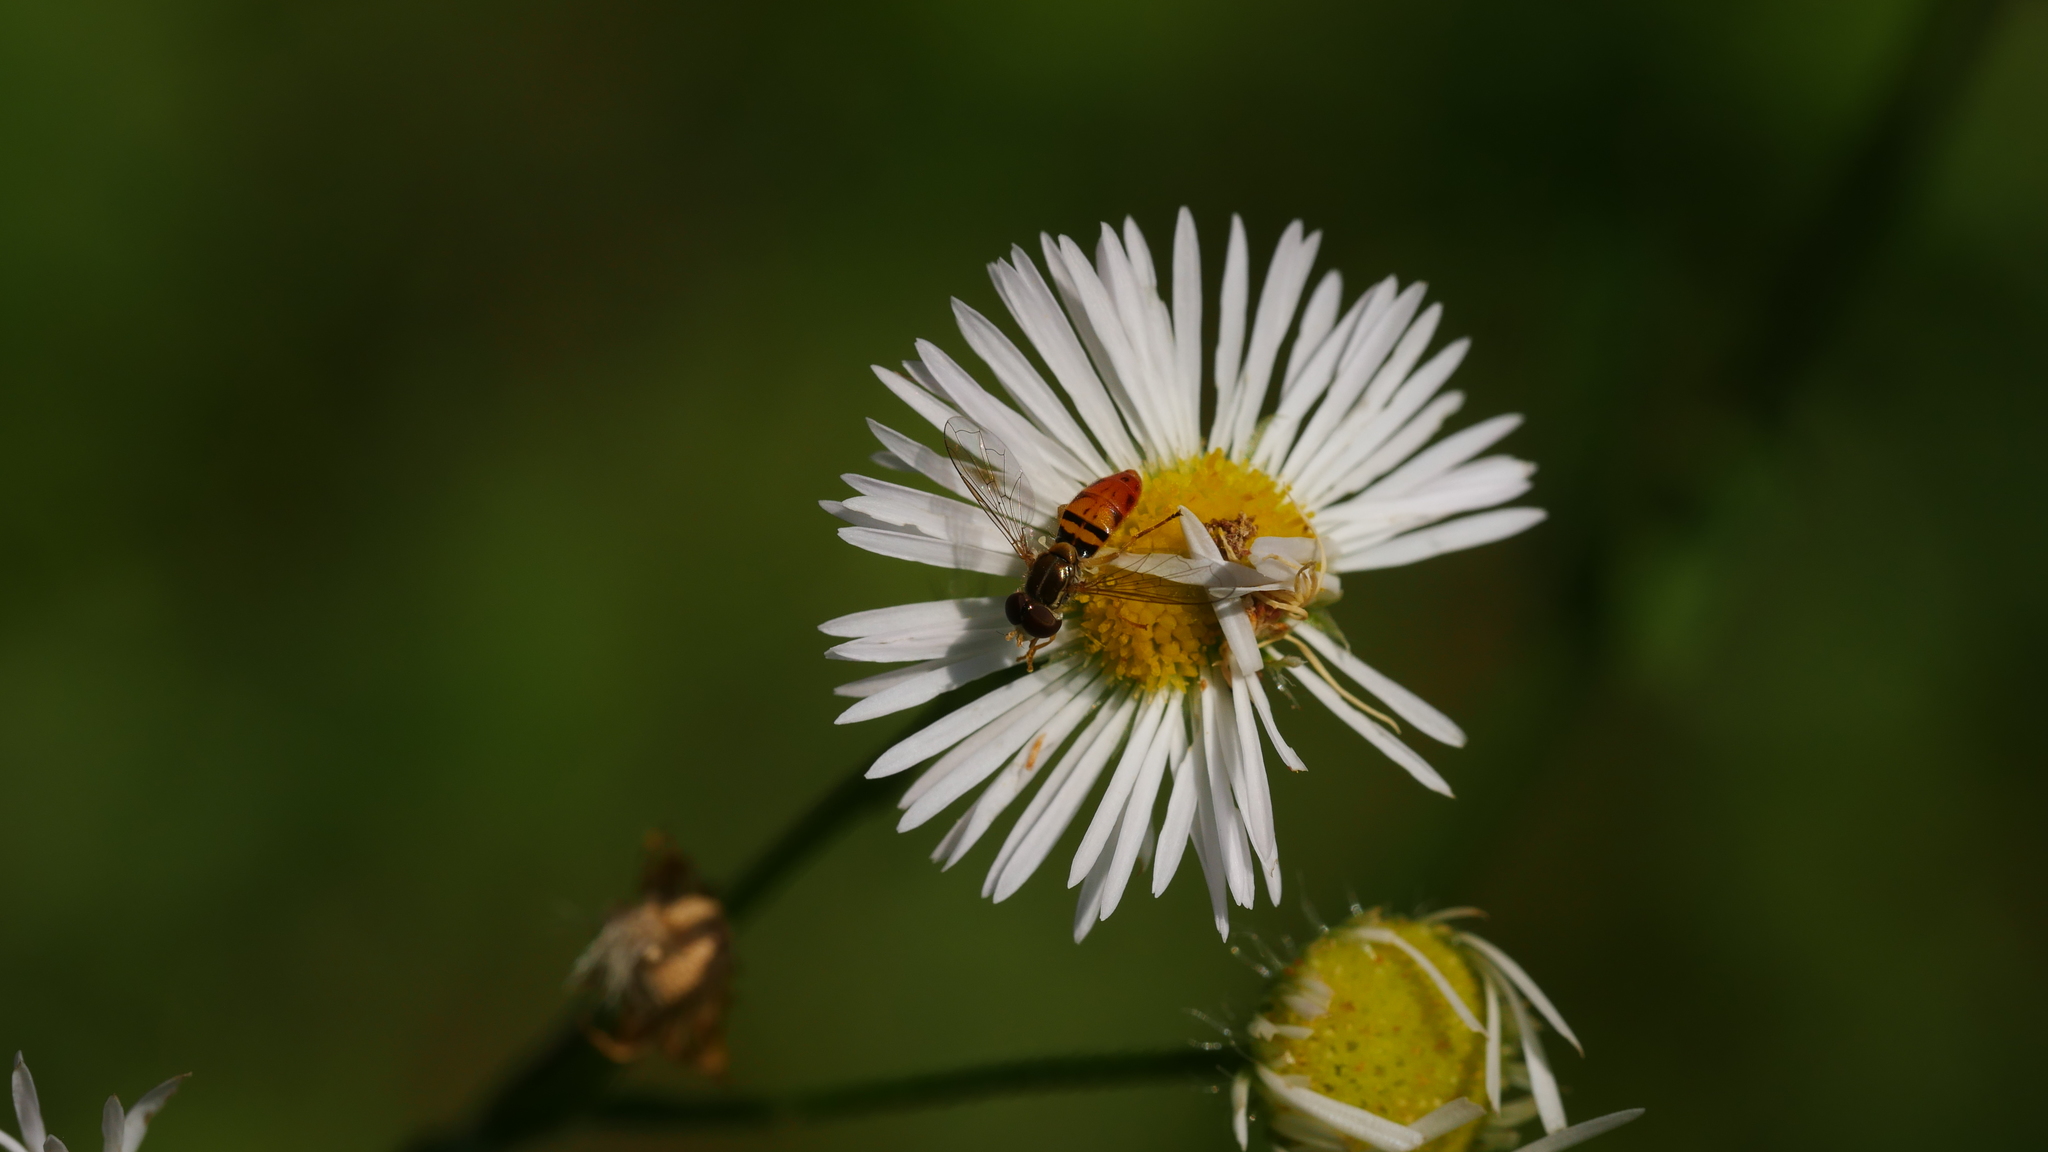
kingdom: Animalia
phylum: Arthropoda
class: Insecta
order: Diptera
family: Syrphidae
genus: Toxomerus
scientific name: Toxomerus marginatus
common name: Syrphid fly
